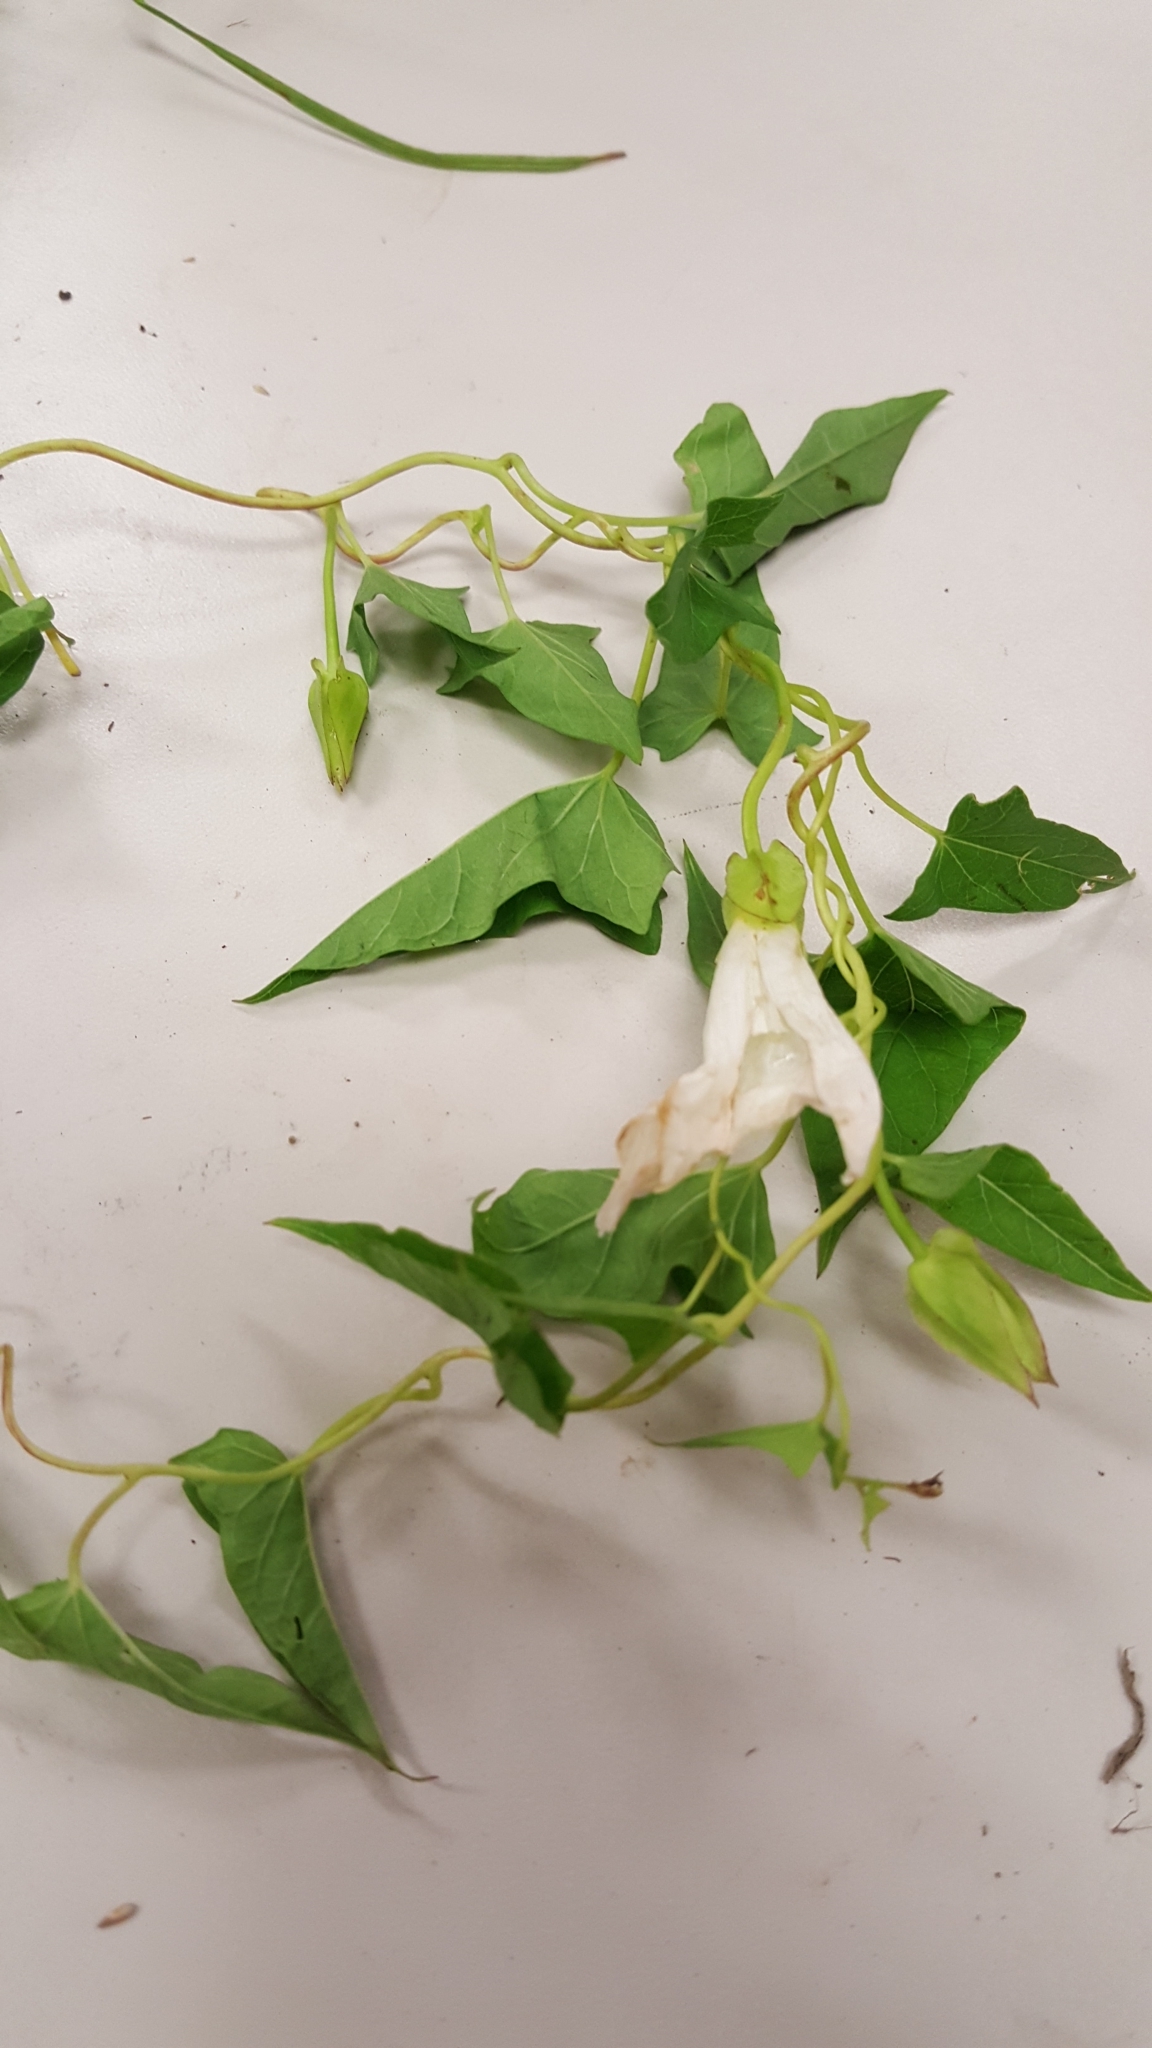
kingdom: Plantae
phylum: Tracheophyta
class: Magnoliopsida
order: Solanales
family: Convolvulaceae
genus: Calystegia
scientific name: Calystegia sepium
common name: Hedge bindweed
